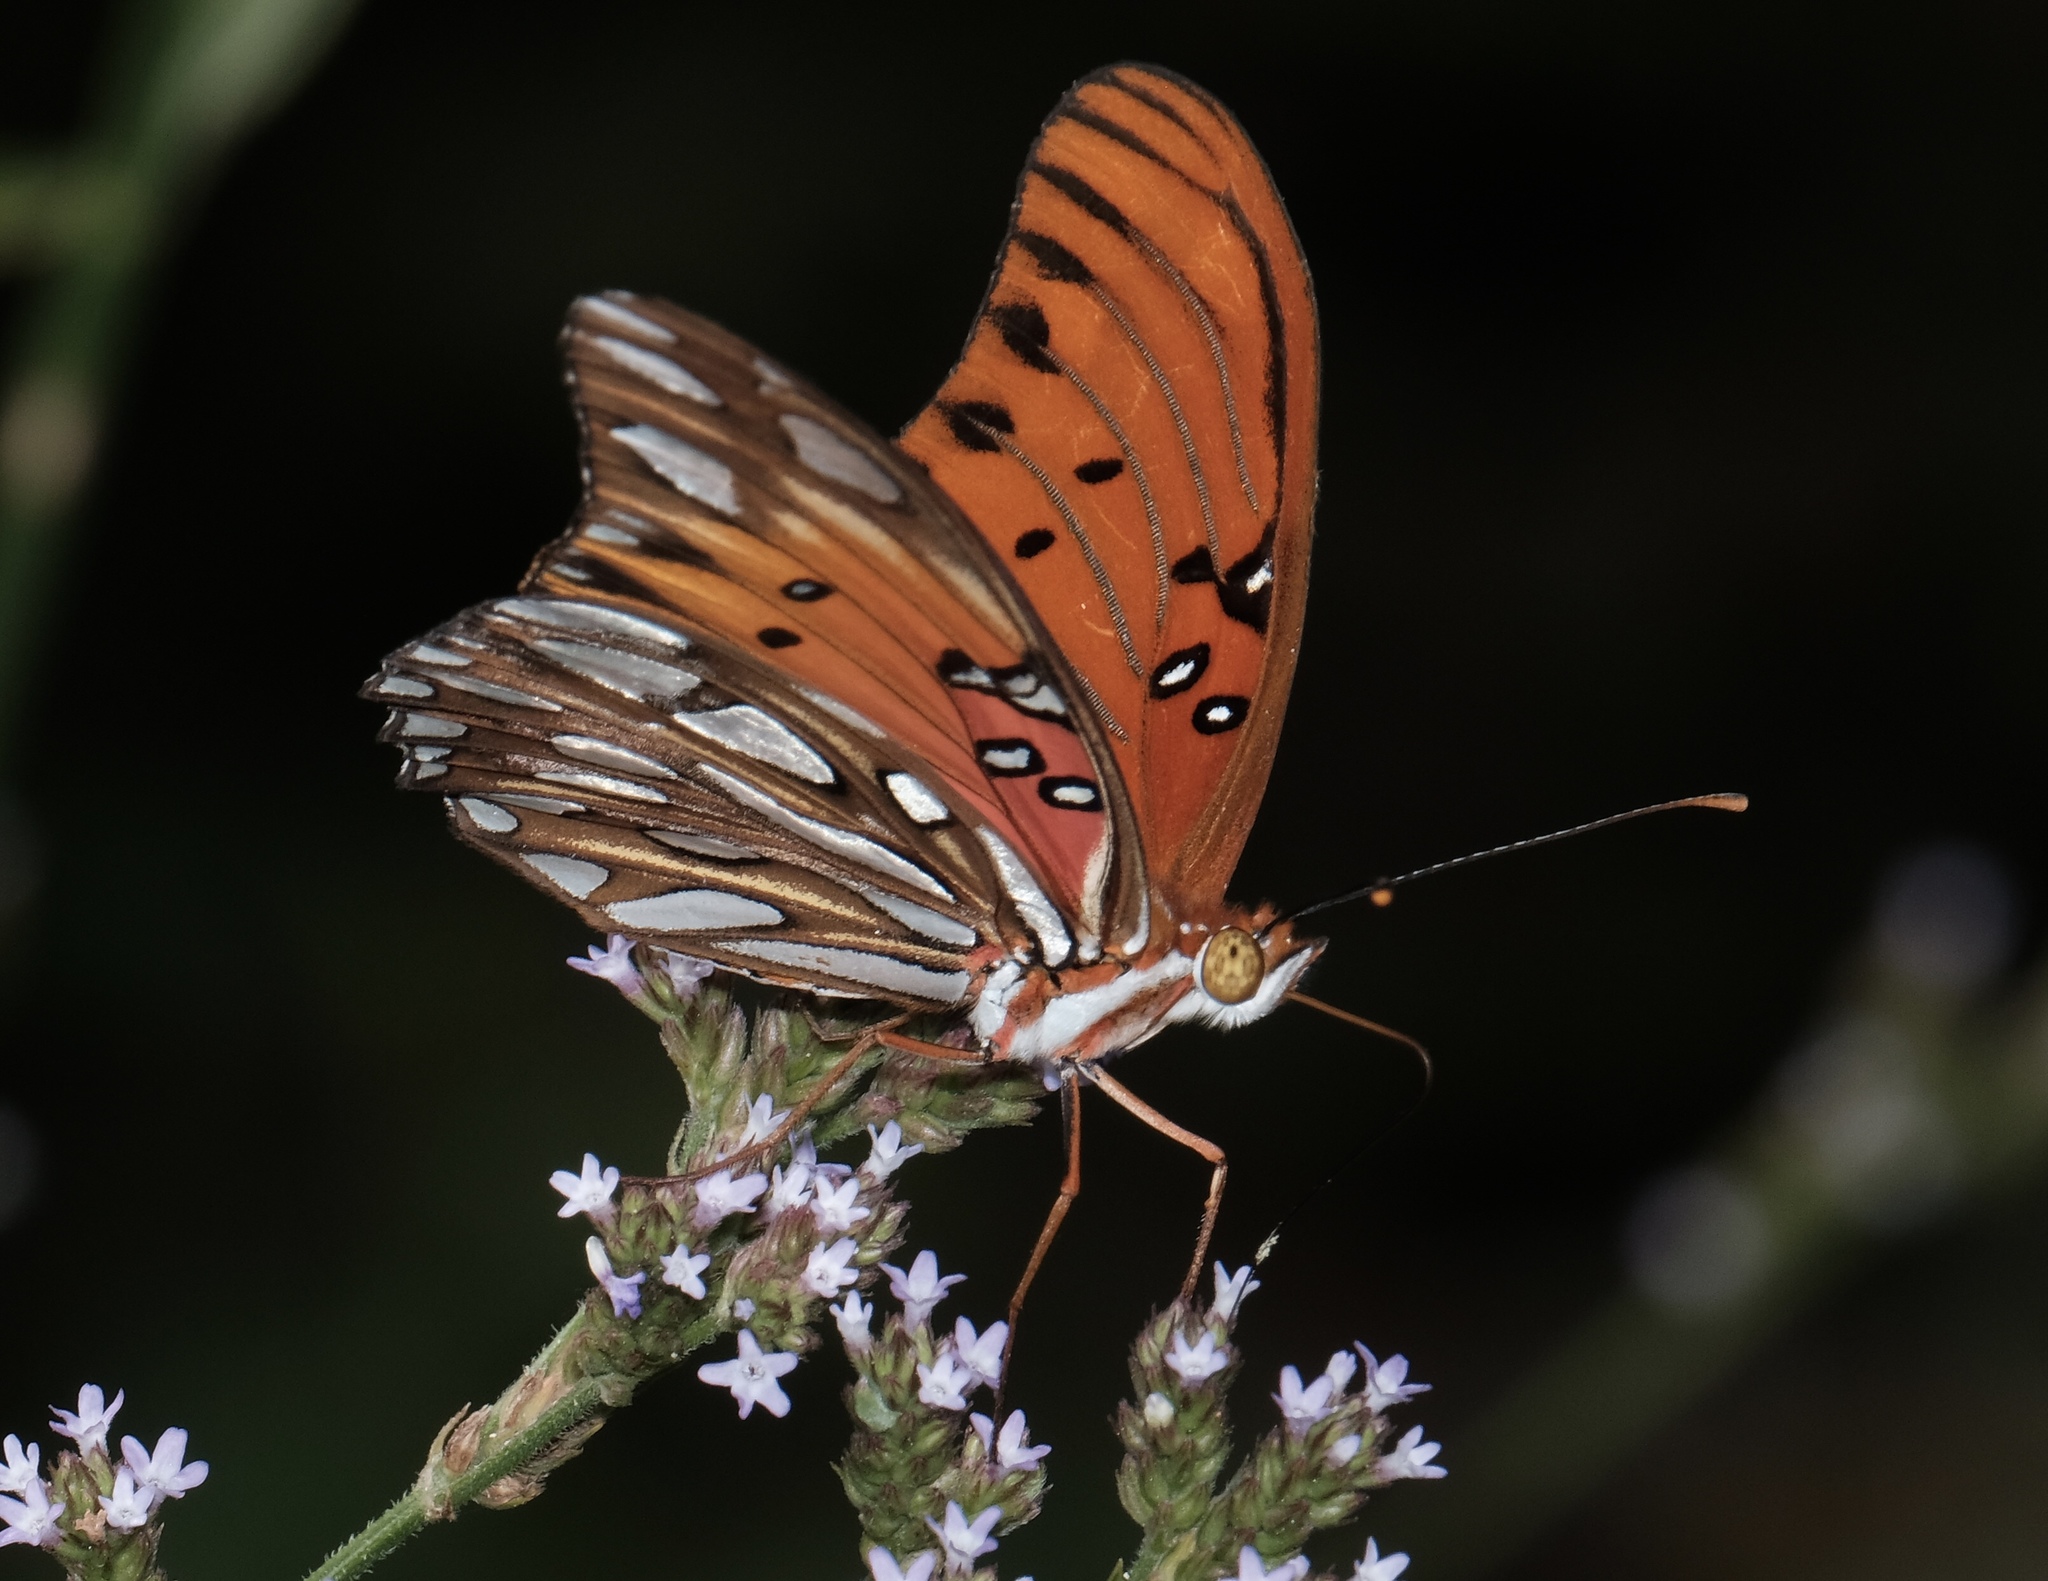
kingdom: Animalia
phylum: Arthropoda
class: Insecta
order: Lepidoptera
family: Nymphalidae
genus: Dione
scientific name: Dione vanillae
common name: Gulf fritillary
